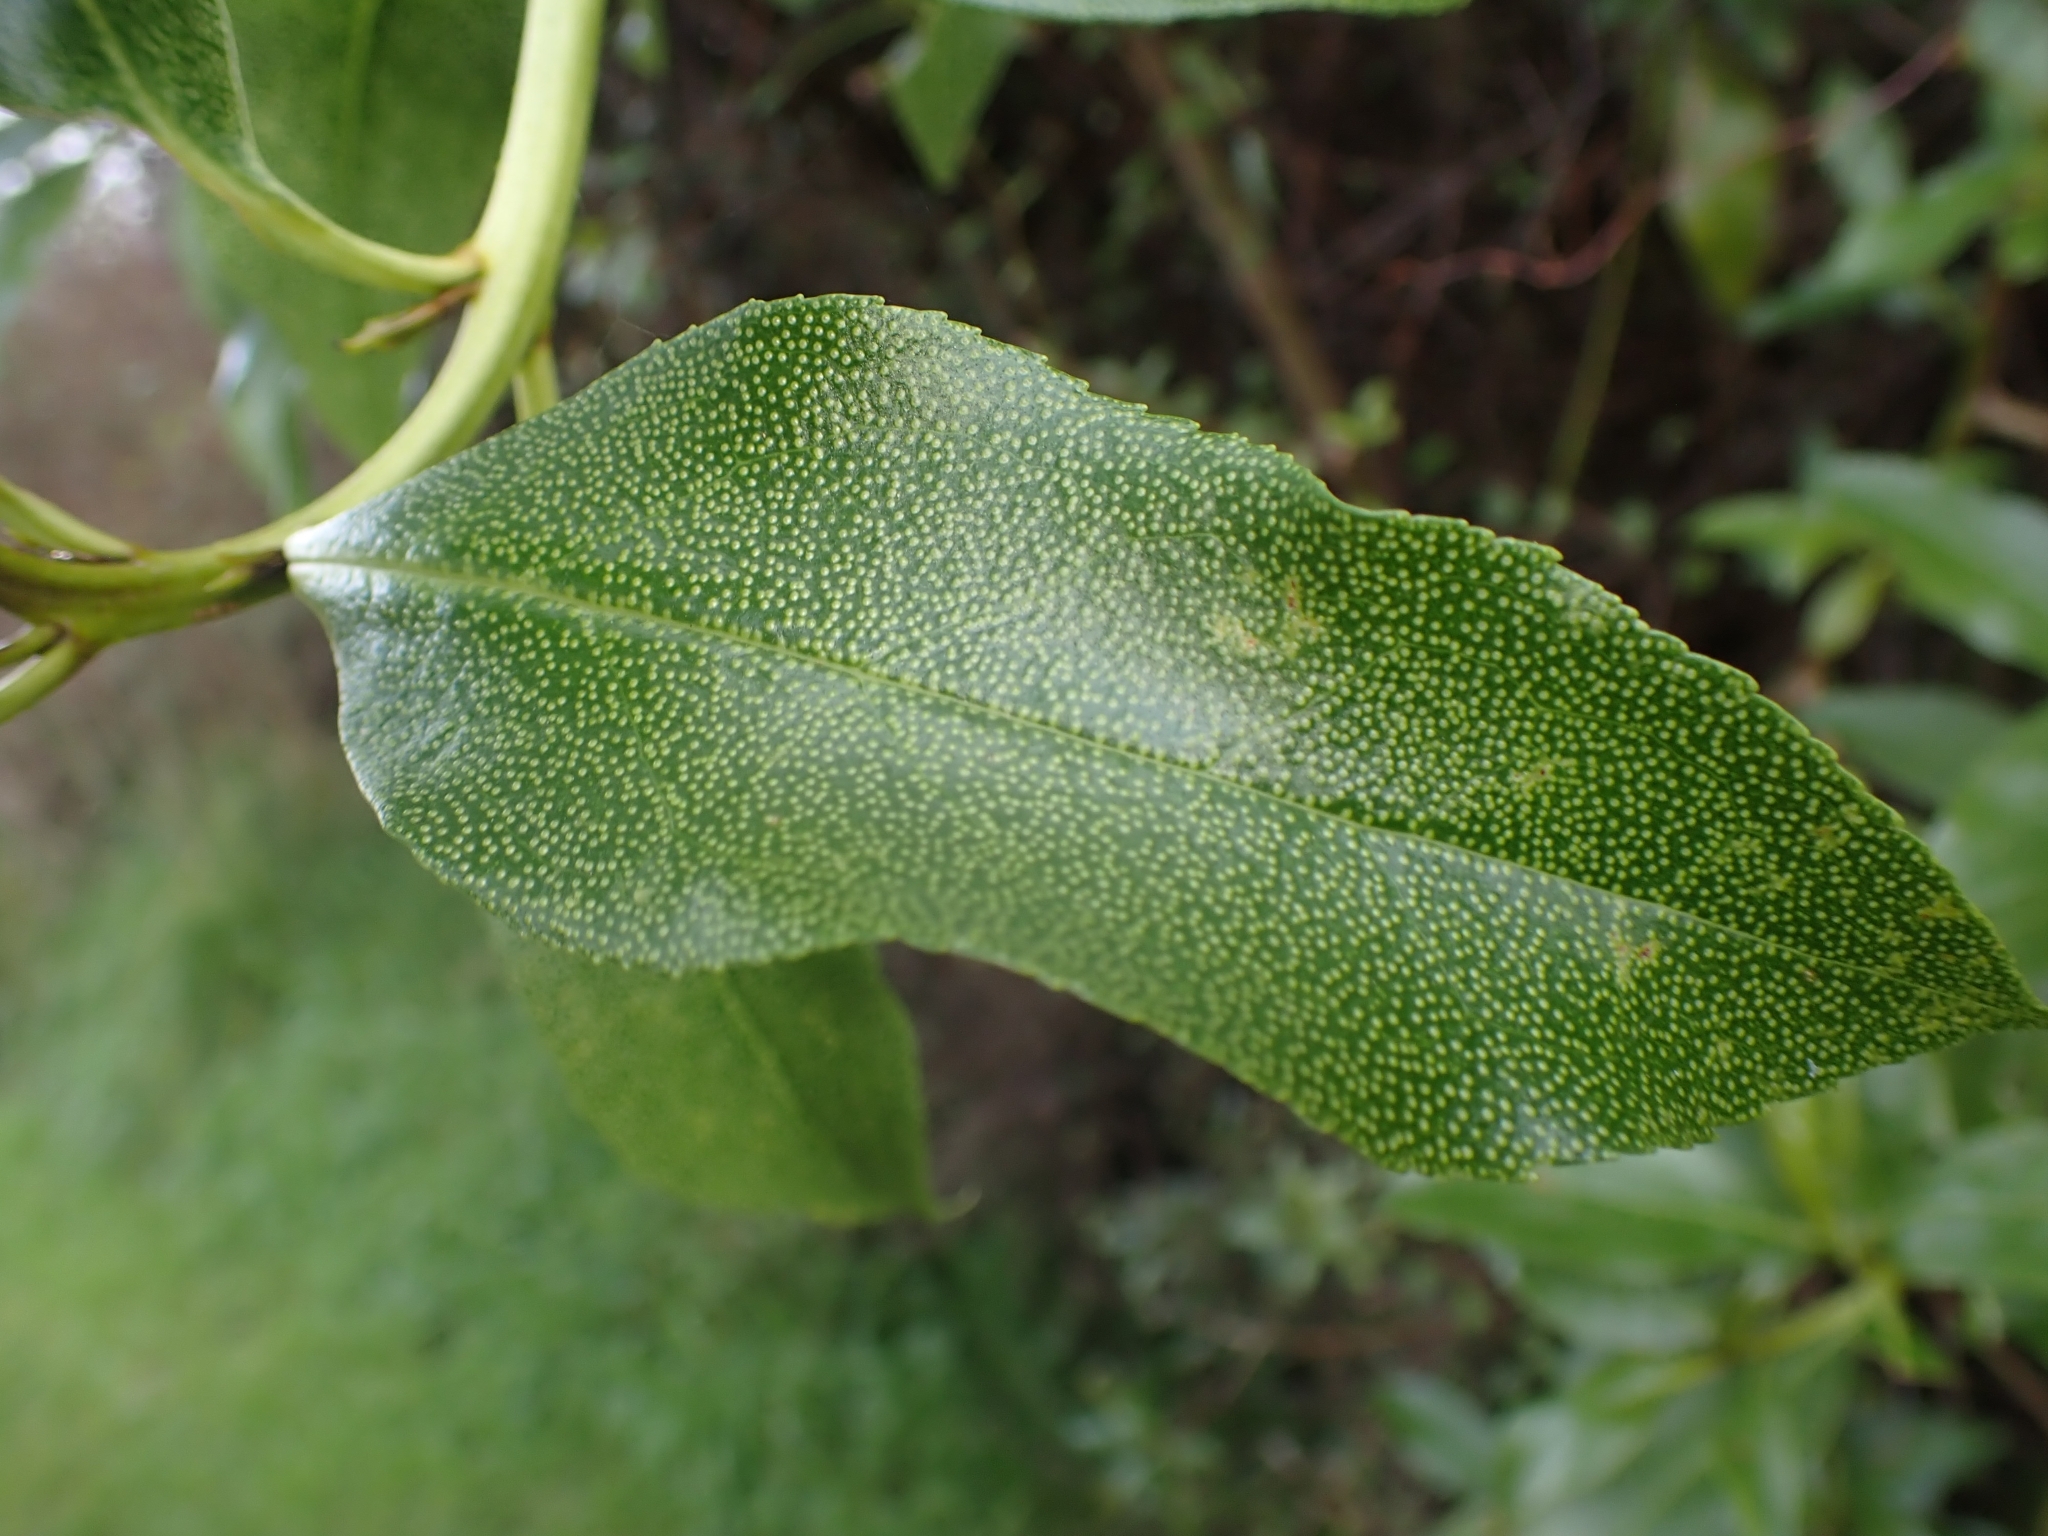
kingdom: Plantae
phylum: Tracheophyta
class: Magnoliopsida
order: Lamiales
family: Scrophulariaceae
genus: Myoporum
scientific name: Myoporum laetum
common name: Ngaio tree
